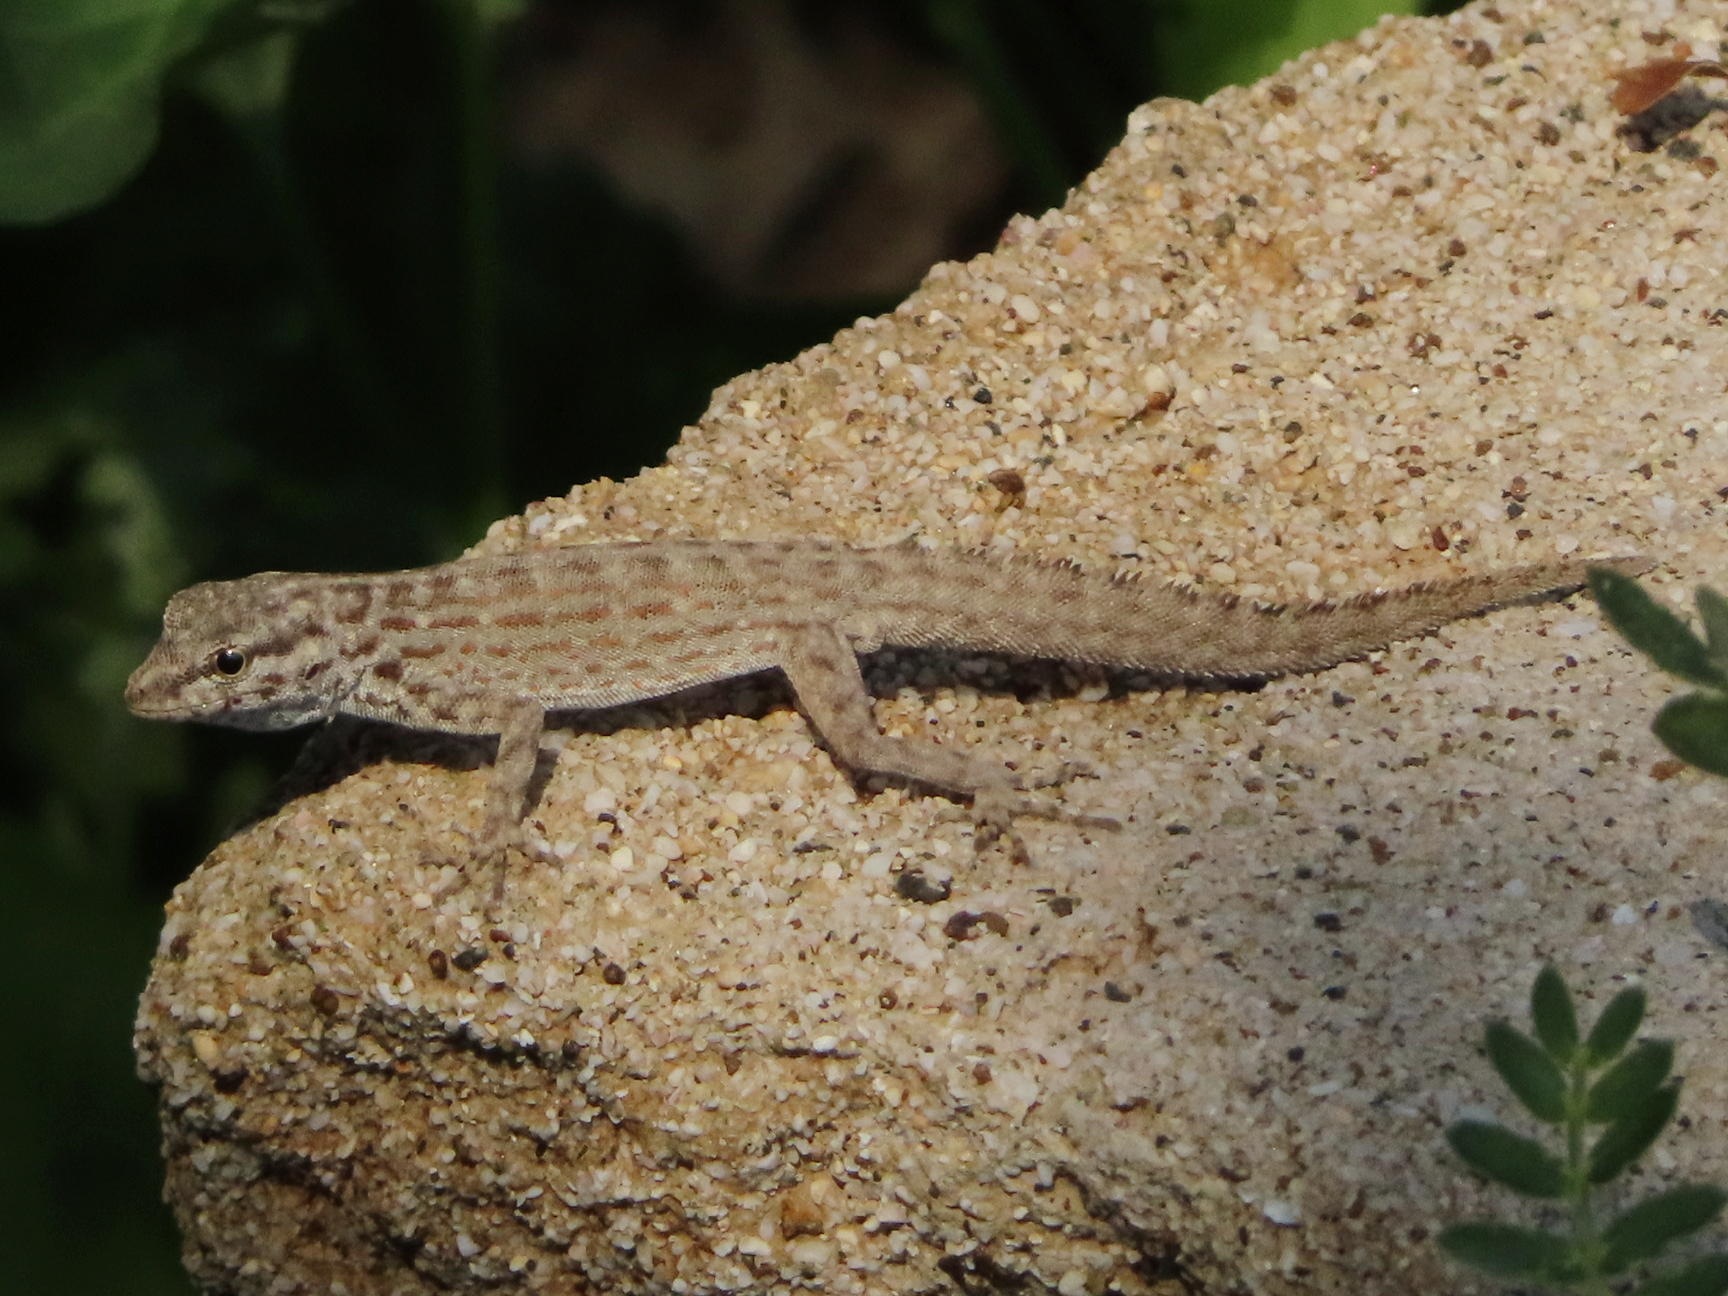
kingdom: Animalia
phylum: Chordata
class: Squamata
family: Sphaerodactylidae
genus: Pristurus
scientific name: Pristurus rupestris
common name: Blanford’s semaphore gecko
